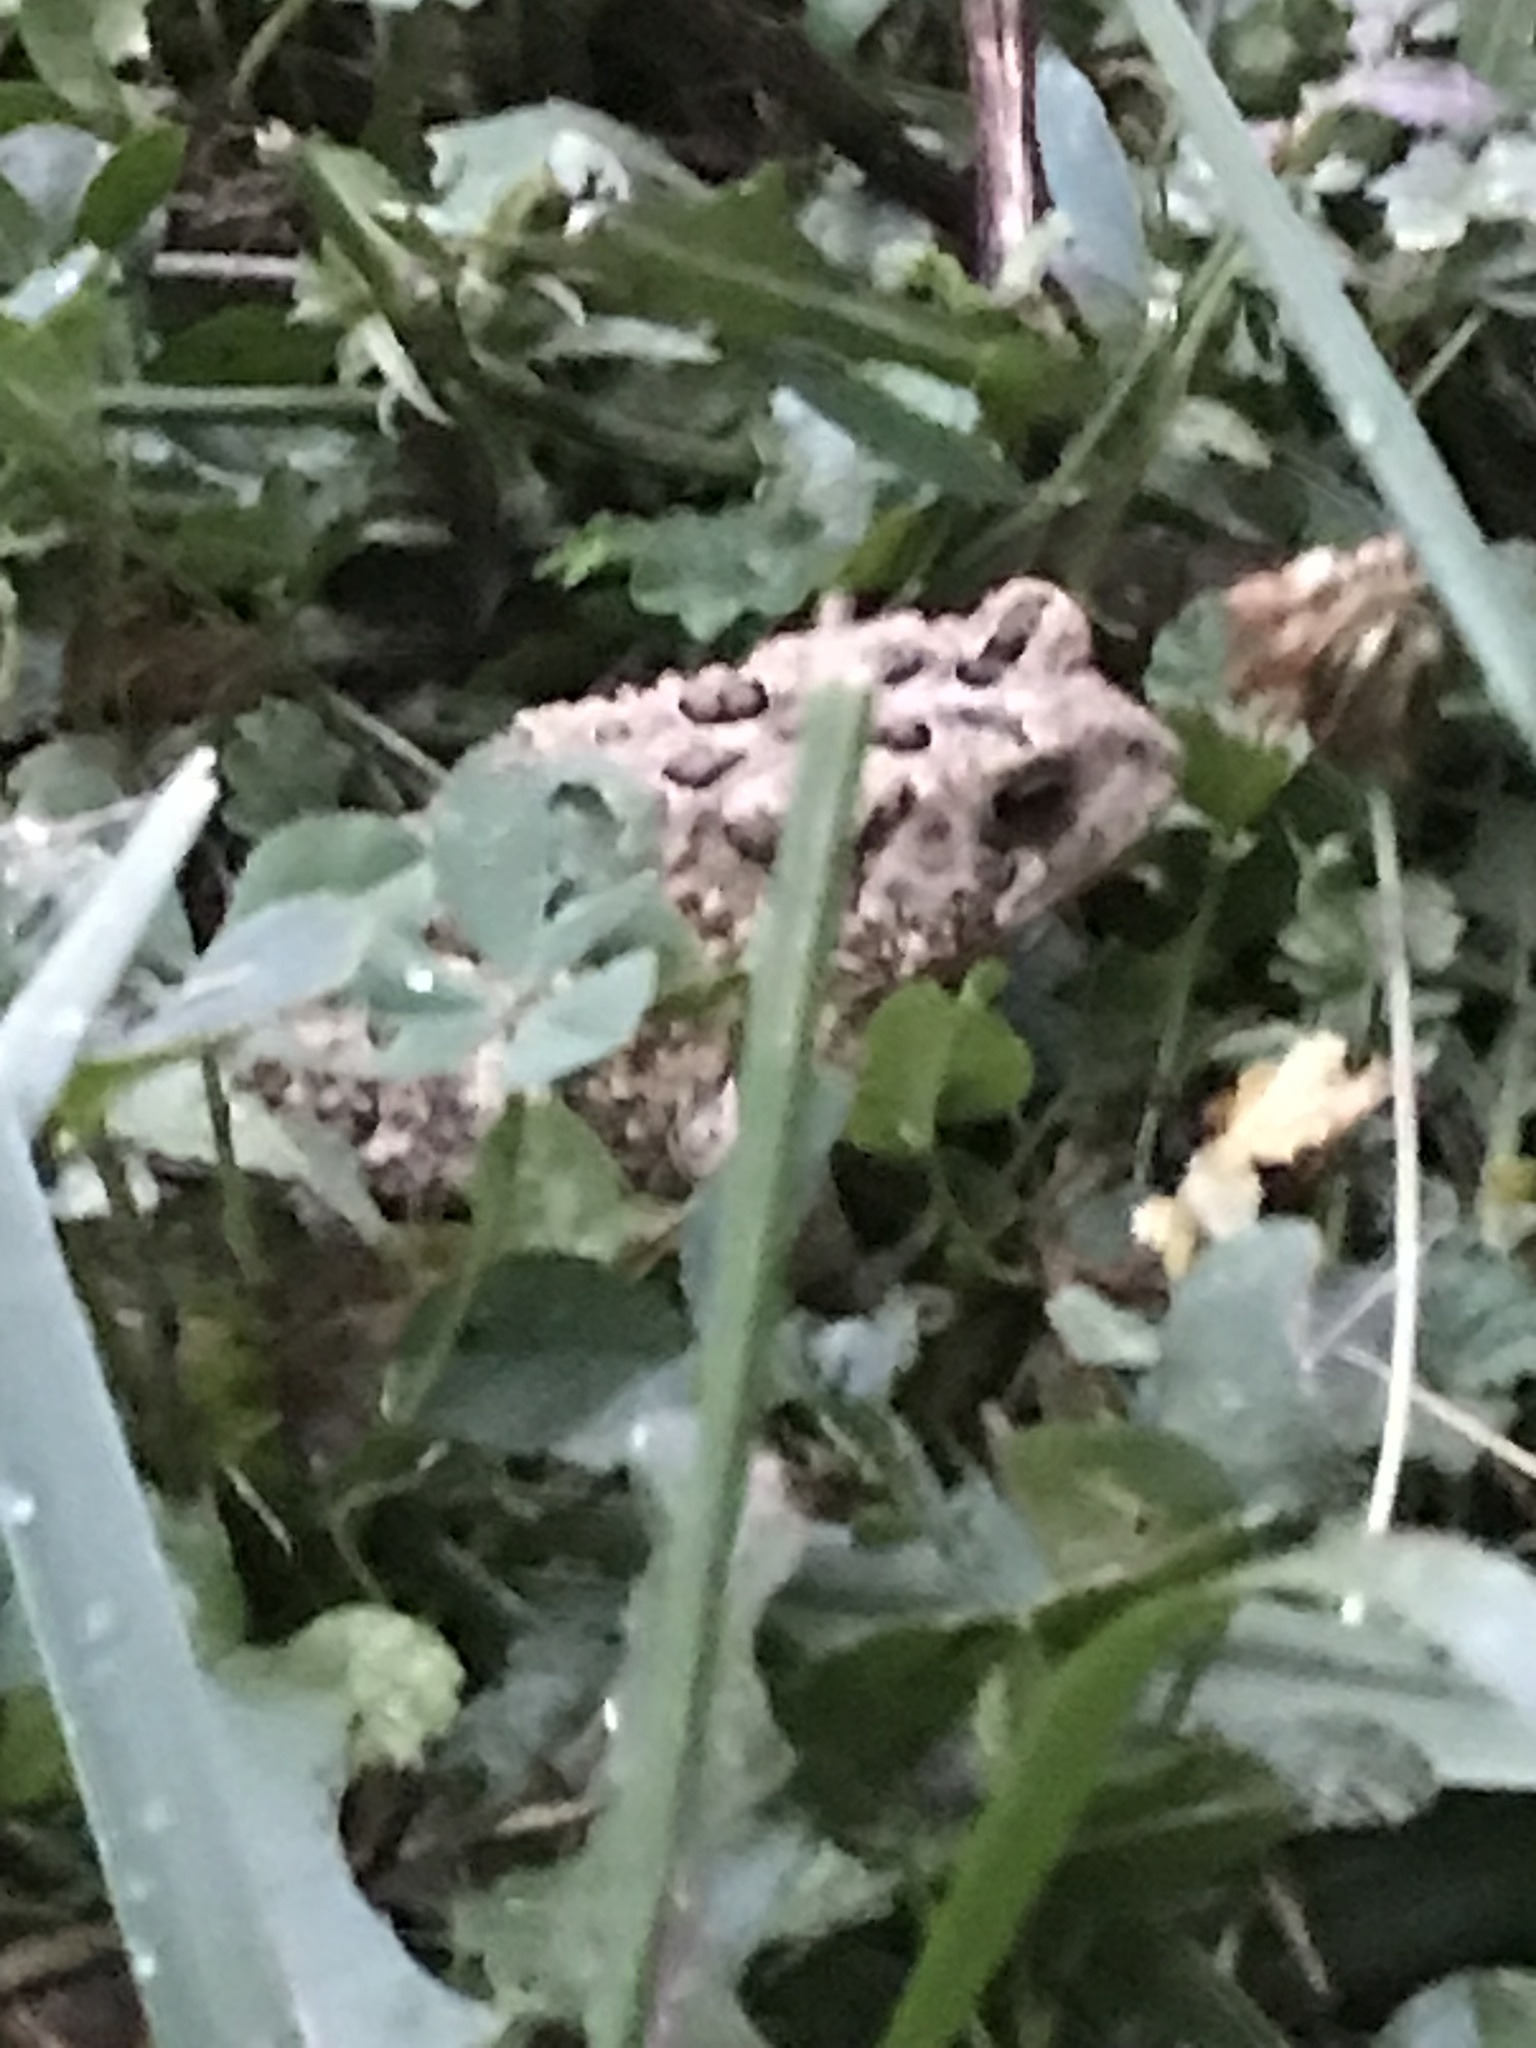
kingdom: Animalia
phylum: Chordata
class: Amphibia
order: Anura
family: Bufonidae
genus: Anaxyrus
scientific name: Anaxyrus americanus
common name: American toad
